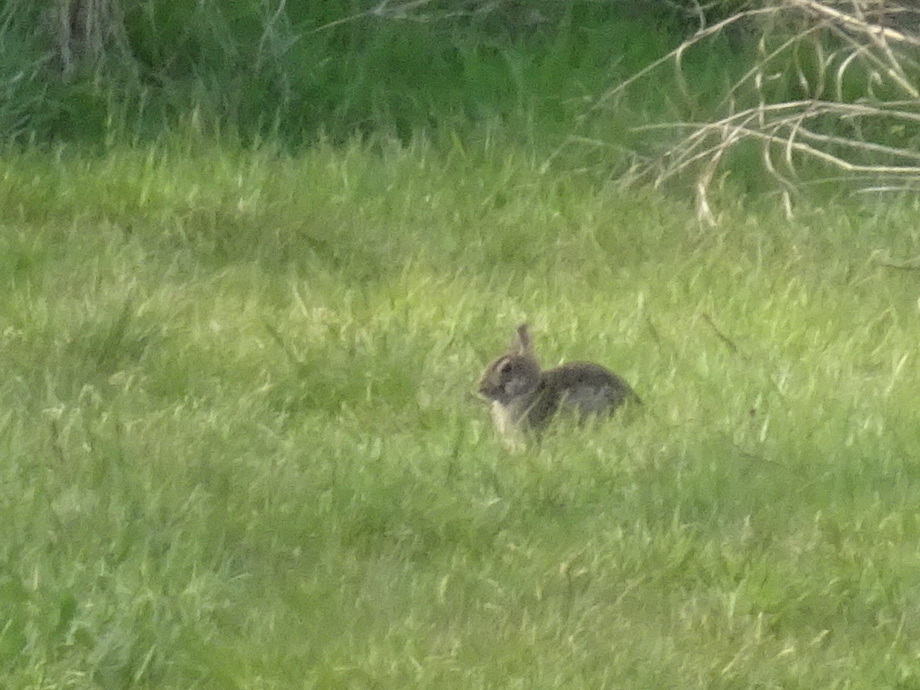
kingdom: Animalia
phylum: Chordata
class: Mammalia
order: Lagomorpha
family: Leporidae
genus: Sylvilagus
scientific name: Sylvilagus floridanus
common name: Eastern cottontail
